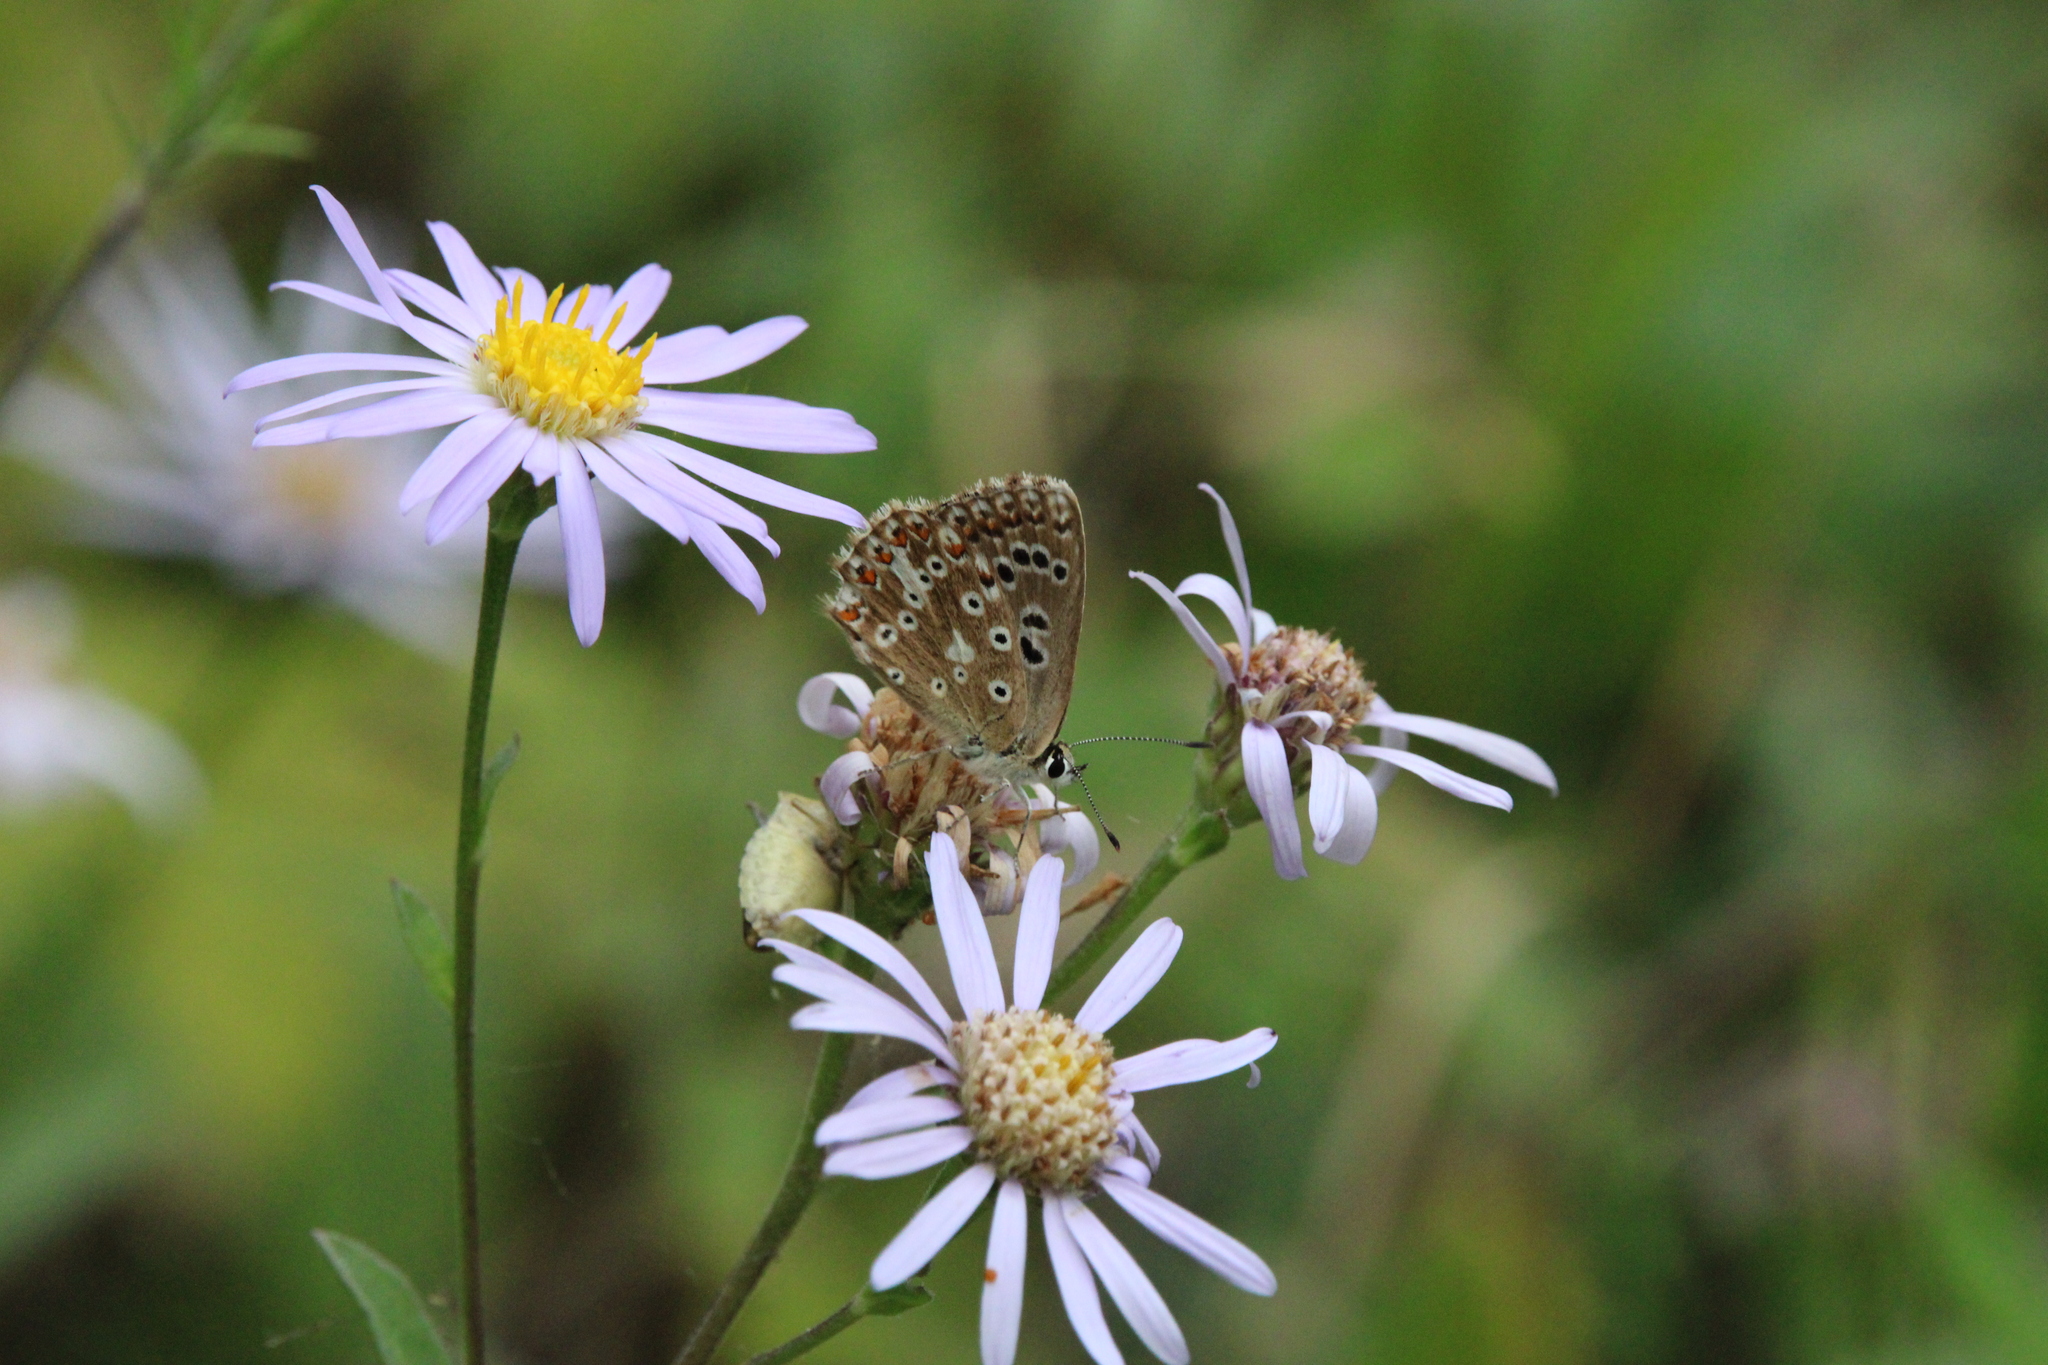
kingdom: Animalia
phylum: Arthropoda
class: Insecta
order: Lepidoptera
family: Lycaenidae
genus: Lysandra
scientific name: Lysandra coridon
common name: Chalkhill blue
